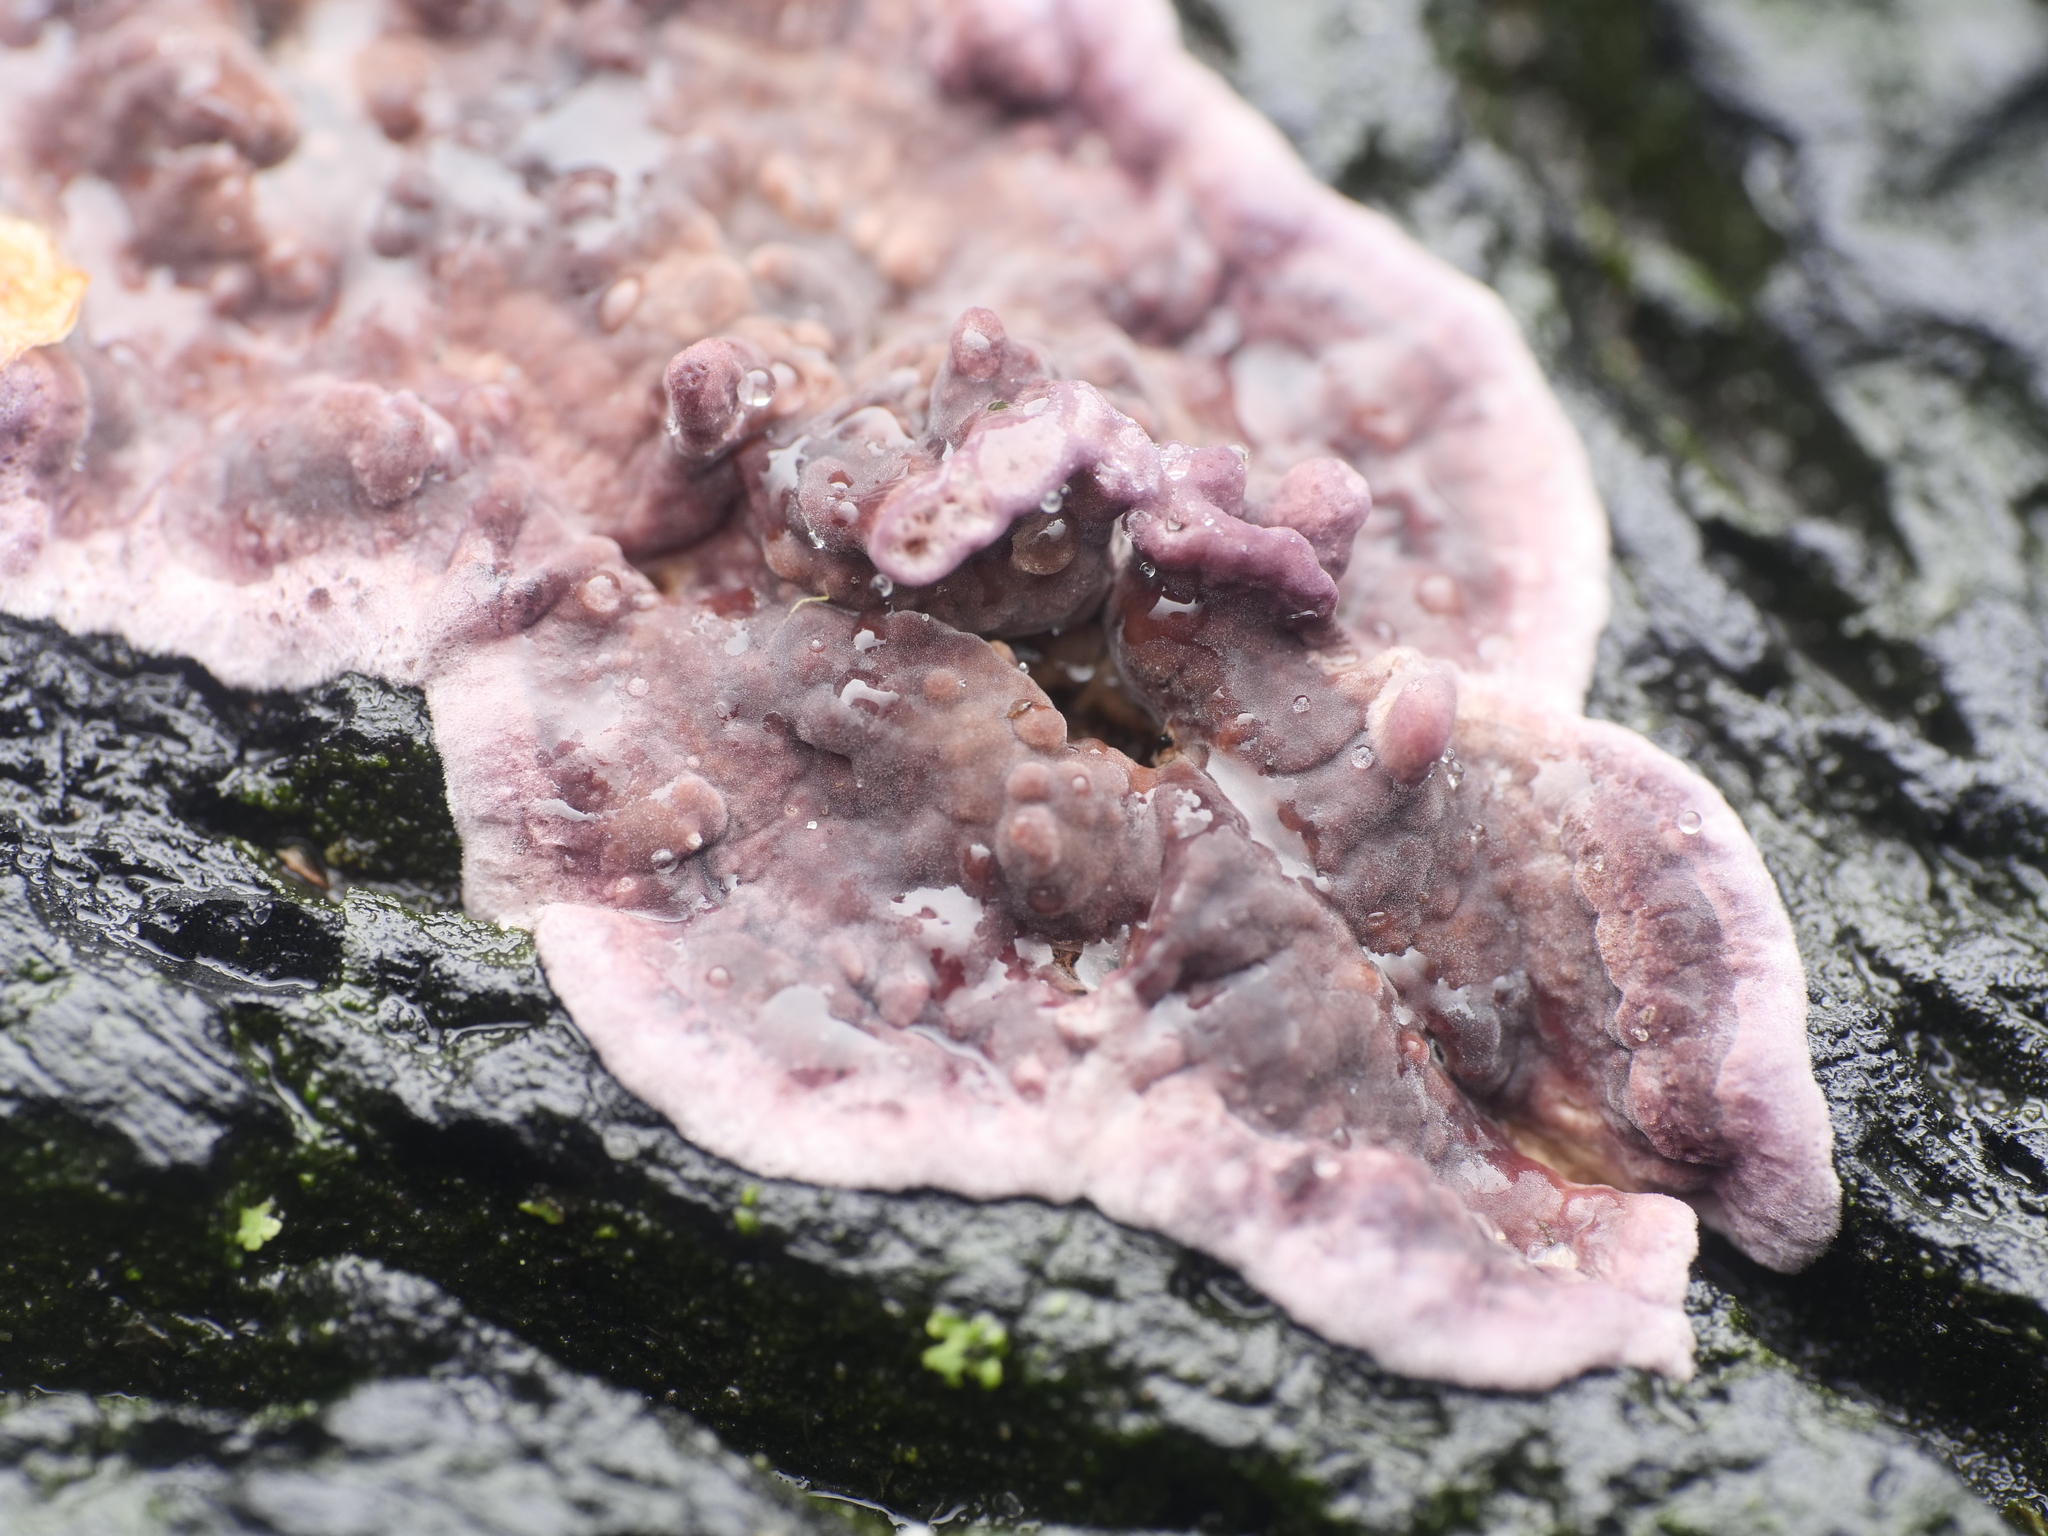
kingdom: Fungi
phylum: Basidiomycota
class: Agaricomycetes
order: Agaricales
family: Cyphellaceae
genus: Chondrostereum
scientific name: Chondrostereum purpureum
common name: Silver leaf disease
